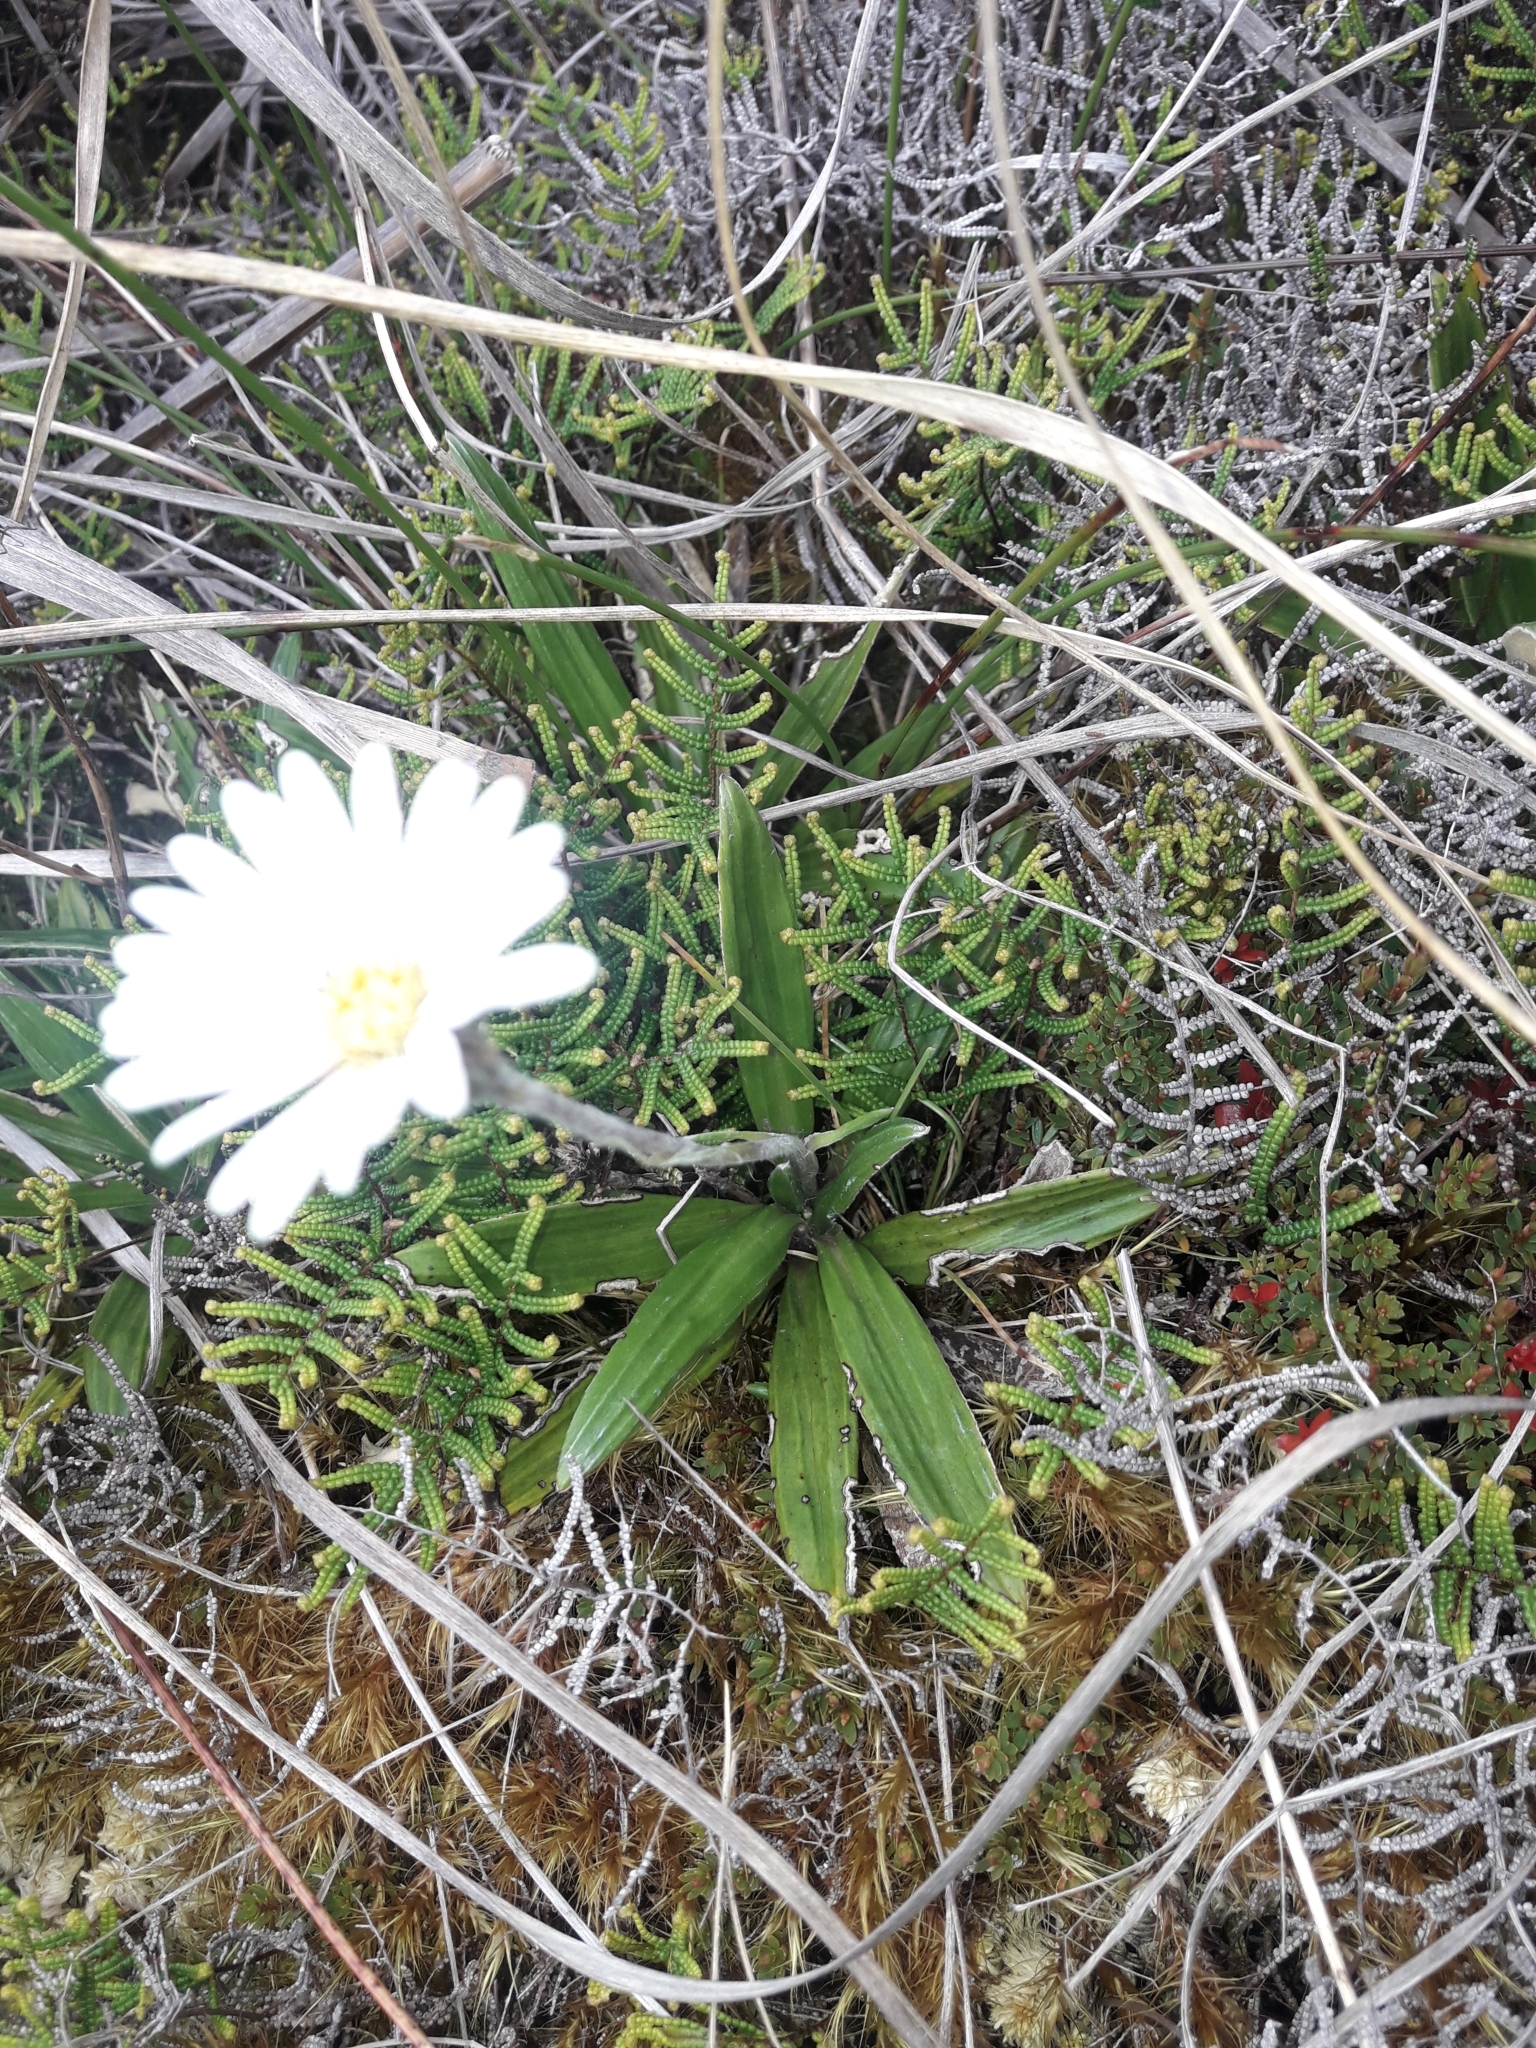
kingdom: Plantae
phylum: Tracheophyta
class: Magnoliopsida
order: Asterales
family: Asteraceae
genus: Celmisia
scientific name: Celmisia spectabilis
